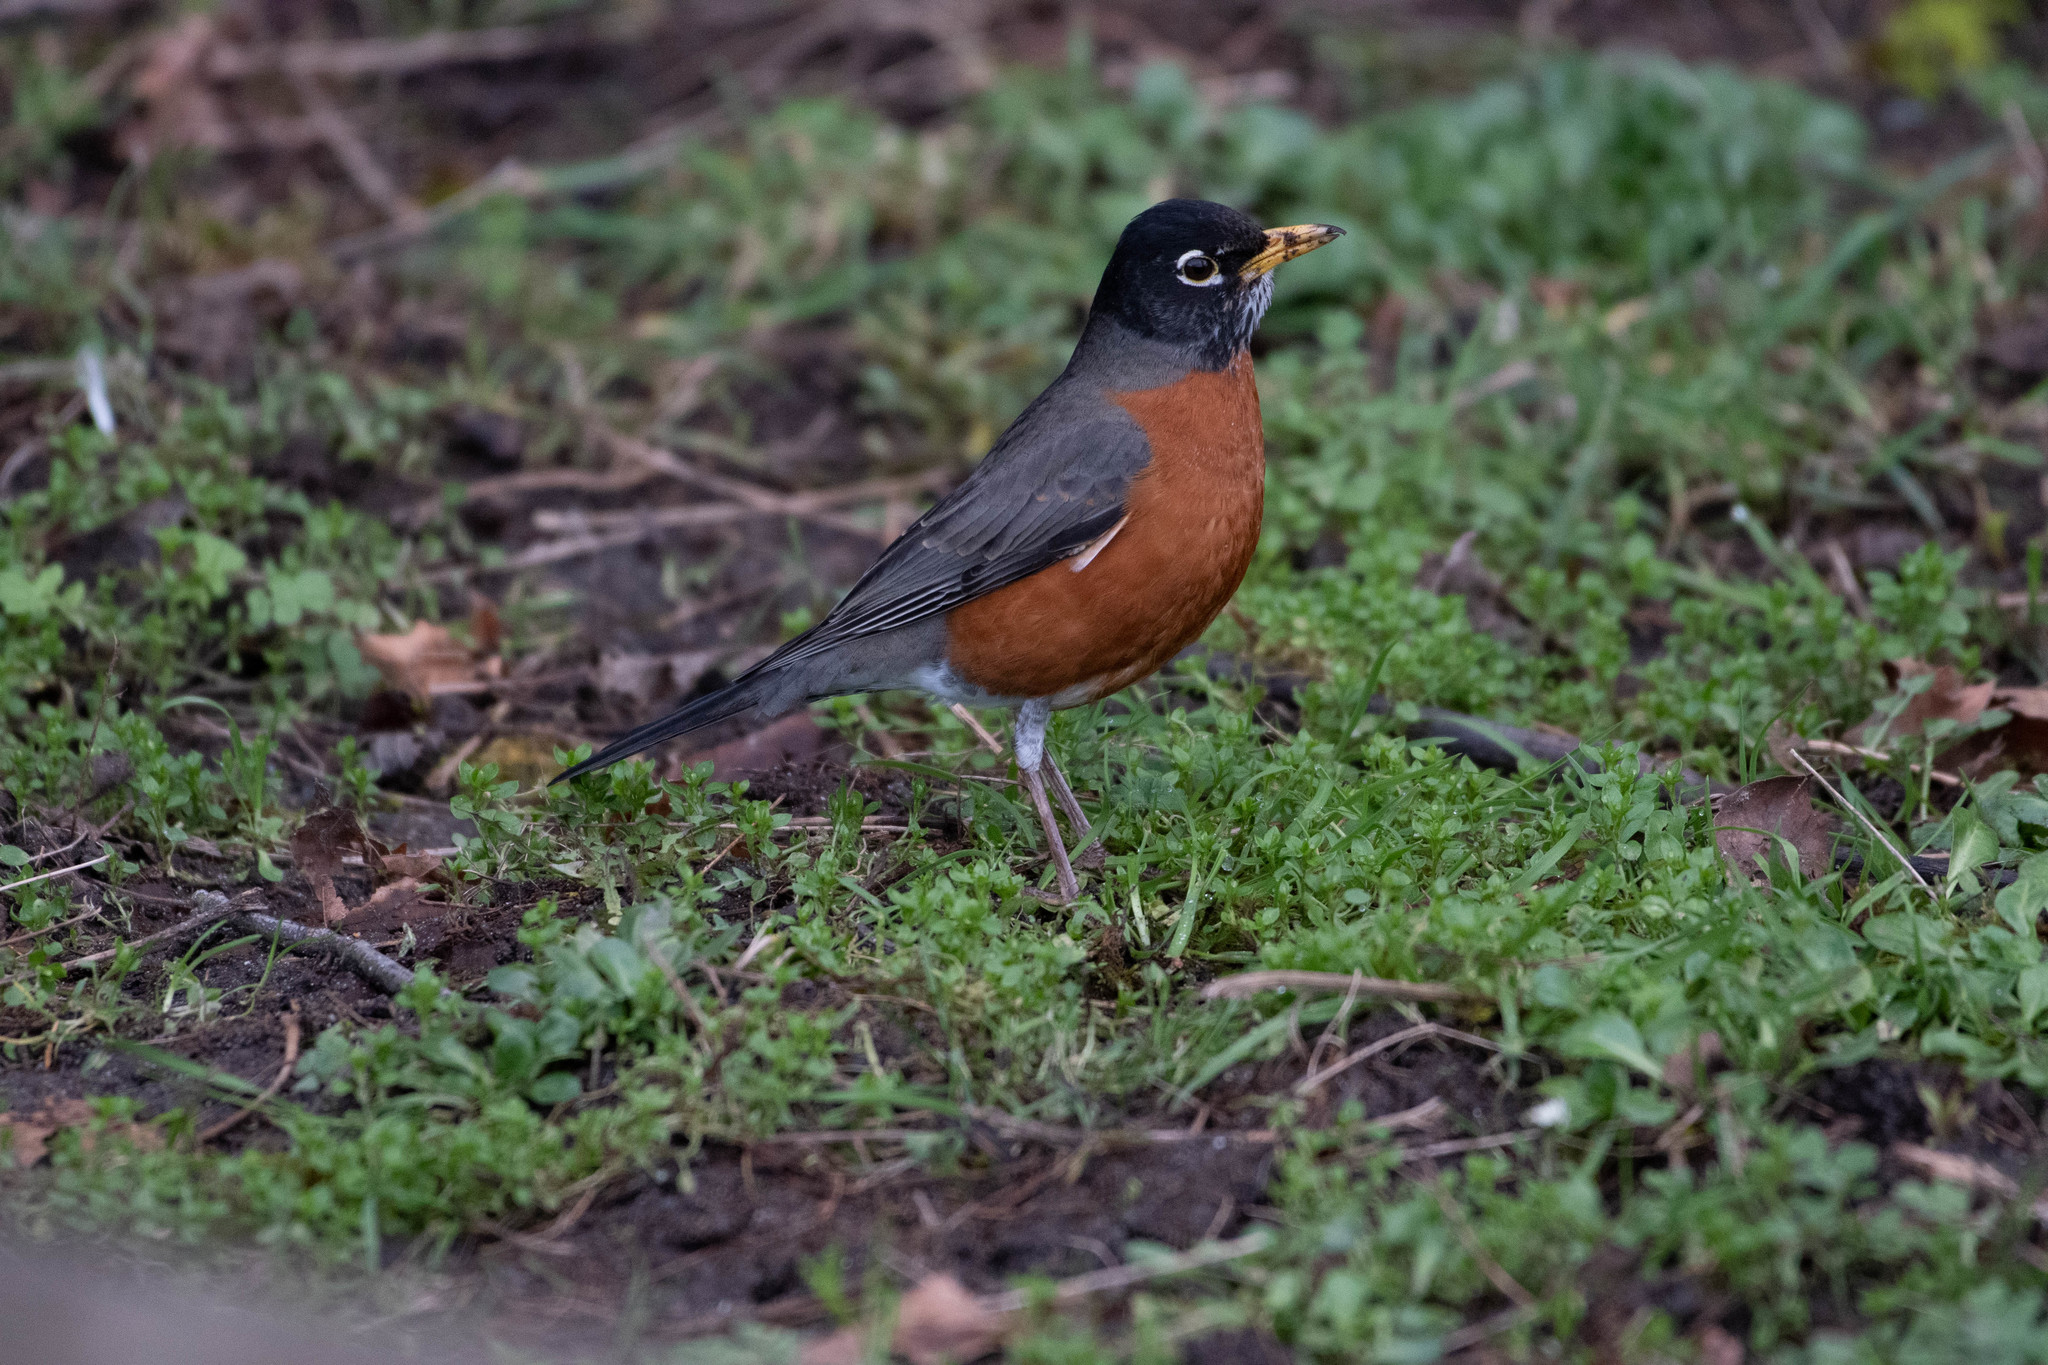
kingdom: Animalia
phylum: Chordata
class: Aves
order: Passeriformes
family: Turdidae
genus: Turdus
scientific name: Turdus migratorius
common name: American robin
